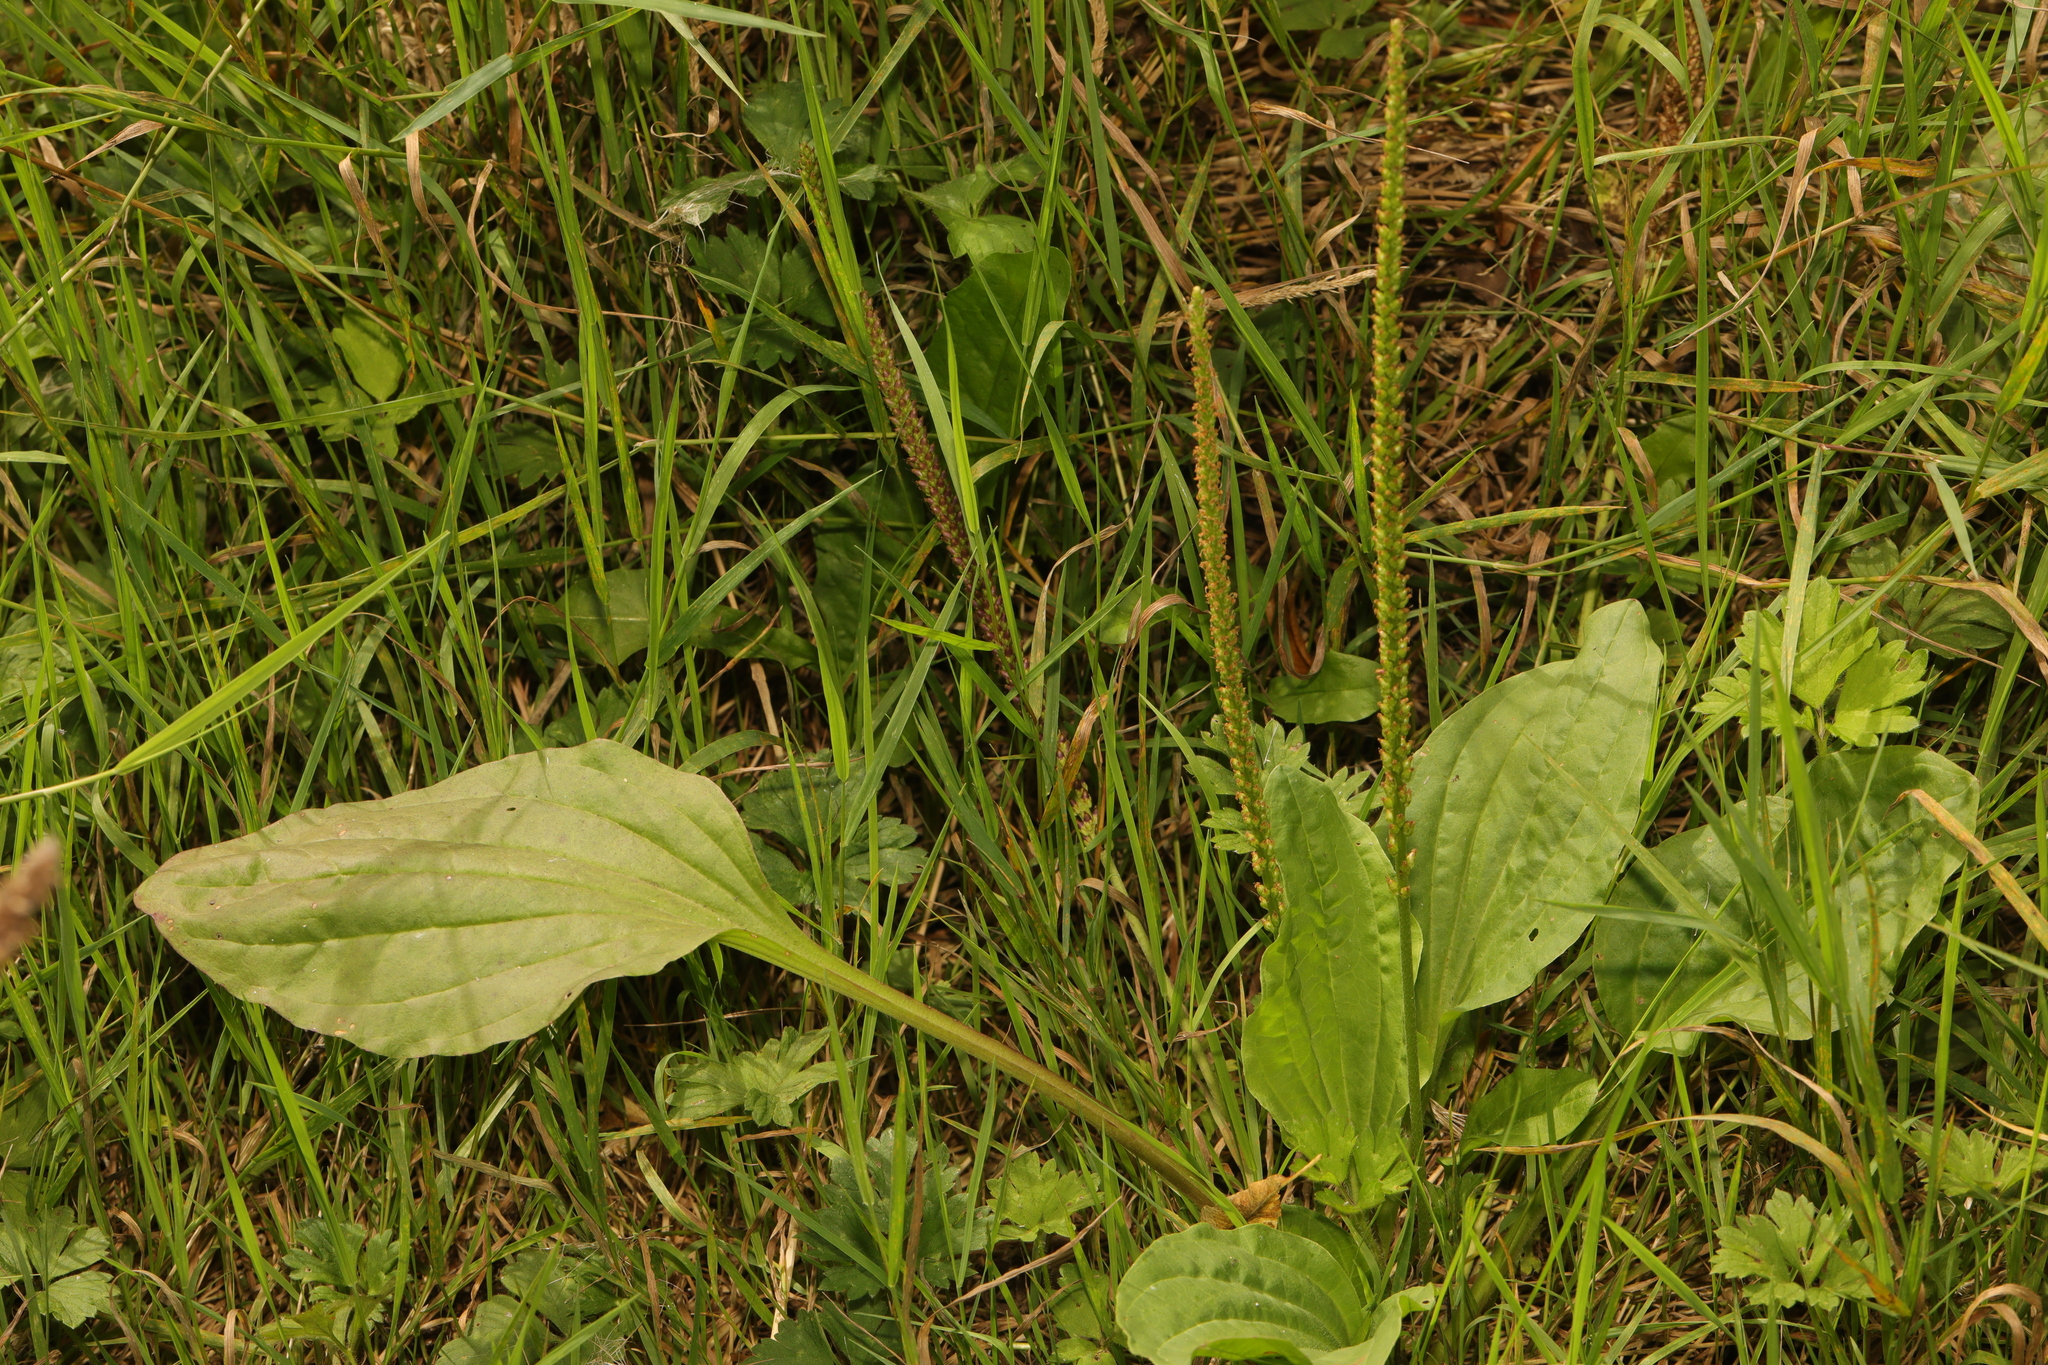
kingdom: Plantae
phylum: Tracheophyta
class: Magnoliopsida
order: Lamiales
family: Plantaginaceae
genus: Plantago
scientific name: Plantago major
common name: Common plantain
